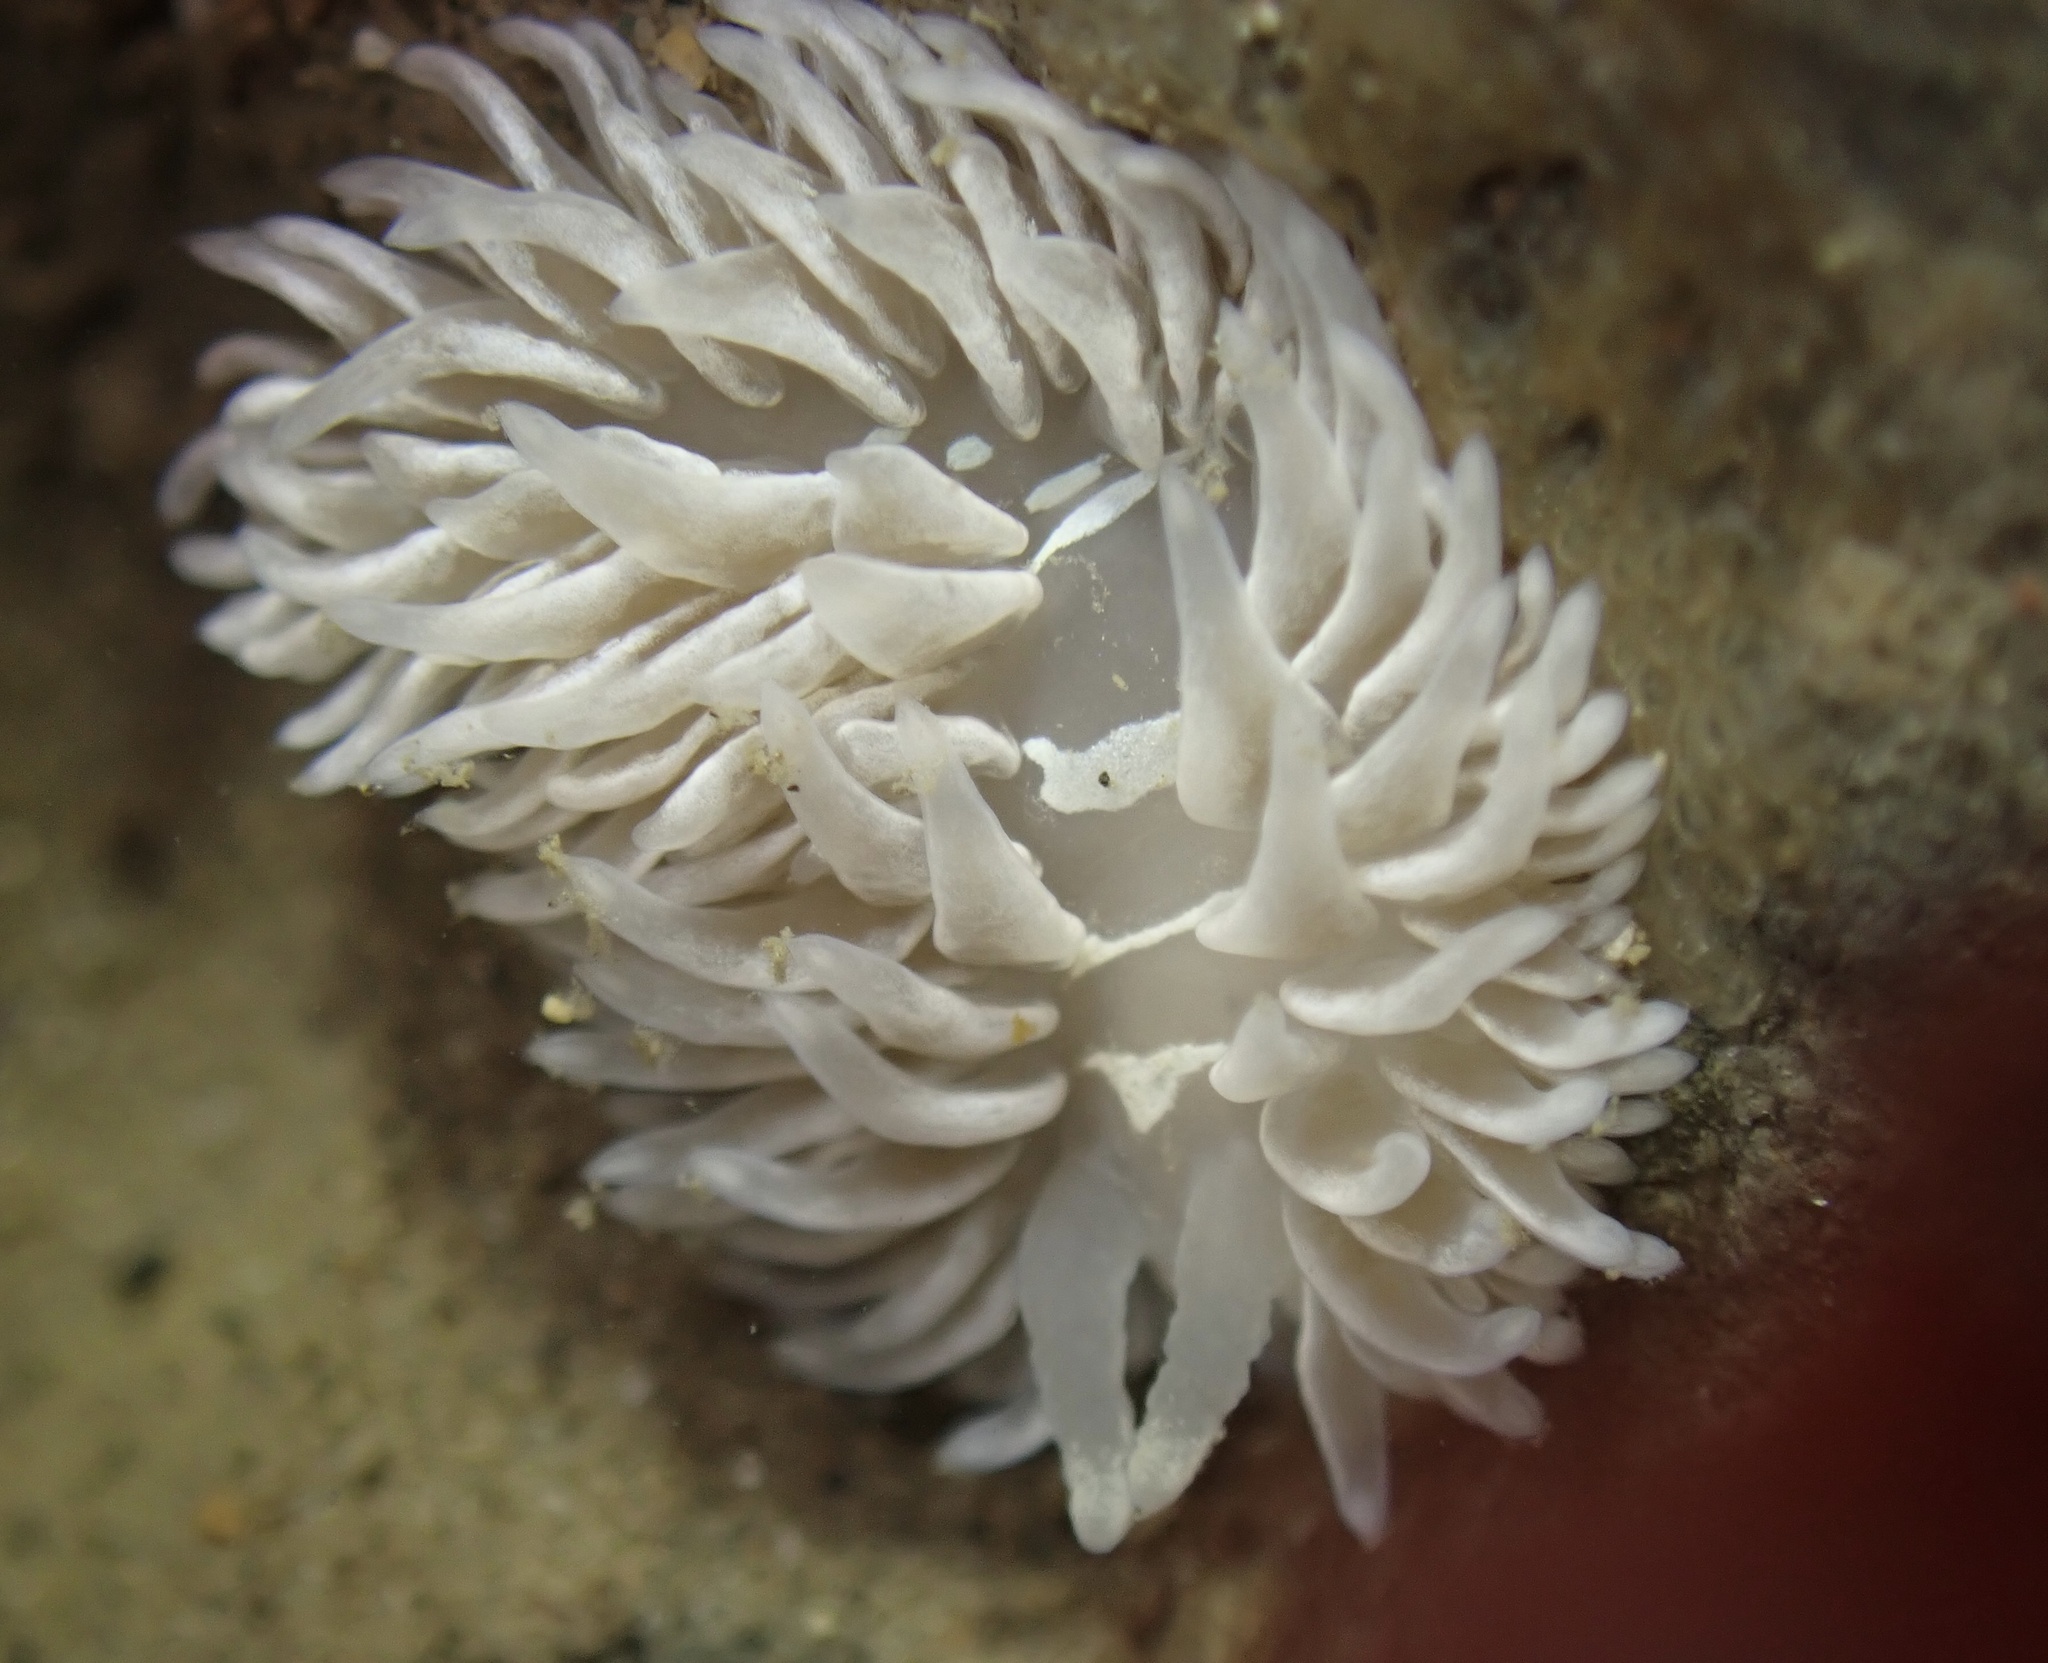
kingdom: Animalia
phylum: Mollusca
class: Gastropoda
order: Nudibranchia
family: Aeolidiidae
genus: Aeolidia
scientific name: Aeolidia loui
